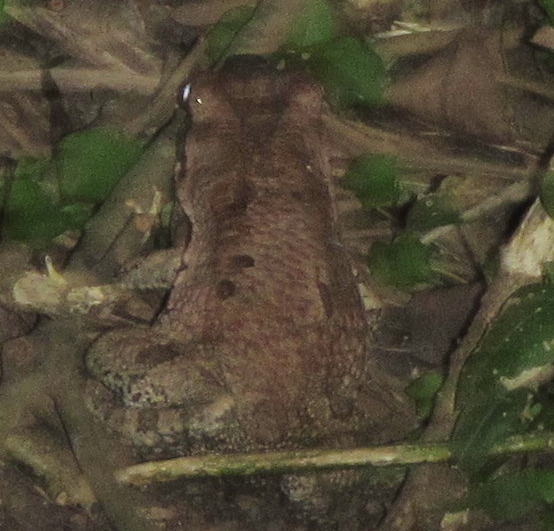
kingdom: Animalia
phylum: Chordata
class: Amphibia
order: Anura
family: Bufonidae
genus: Schismaderma
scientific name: Schismaderma carens
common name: African split-skin toad
